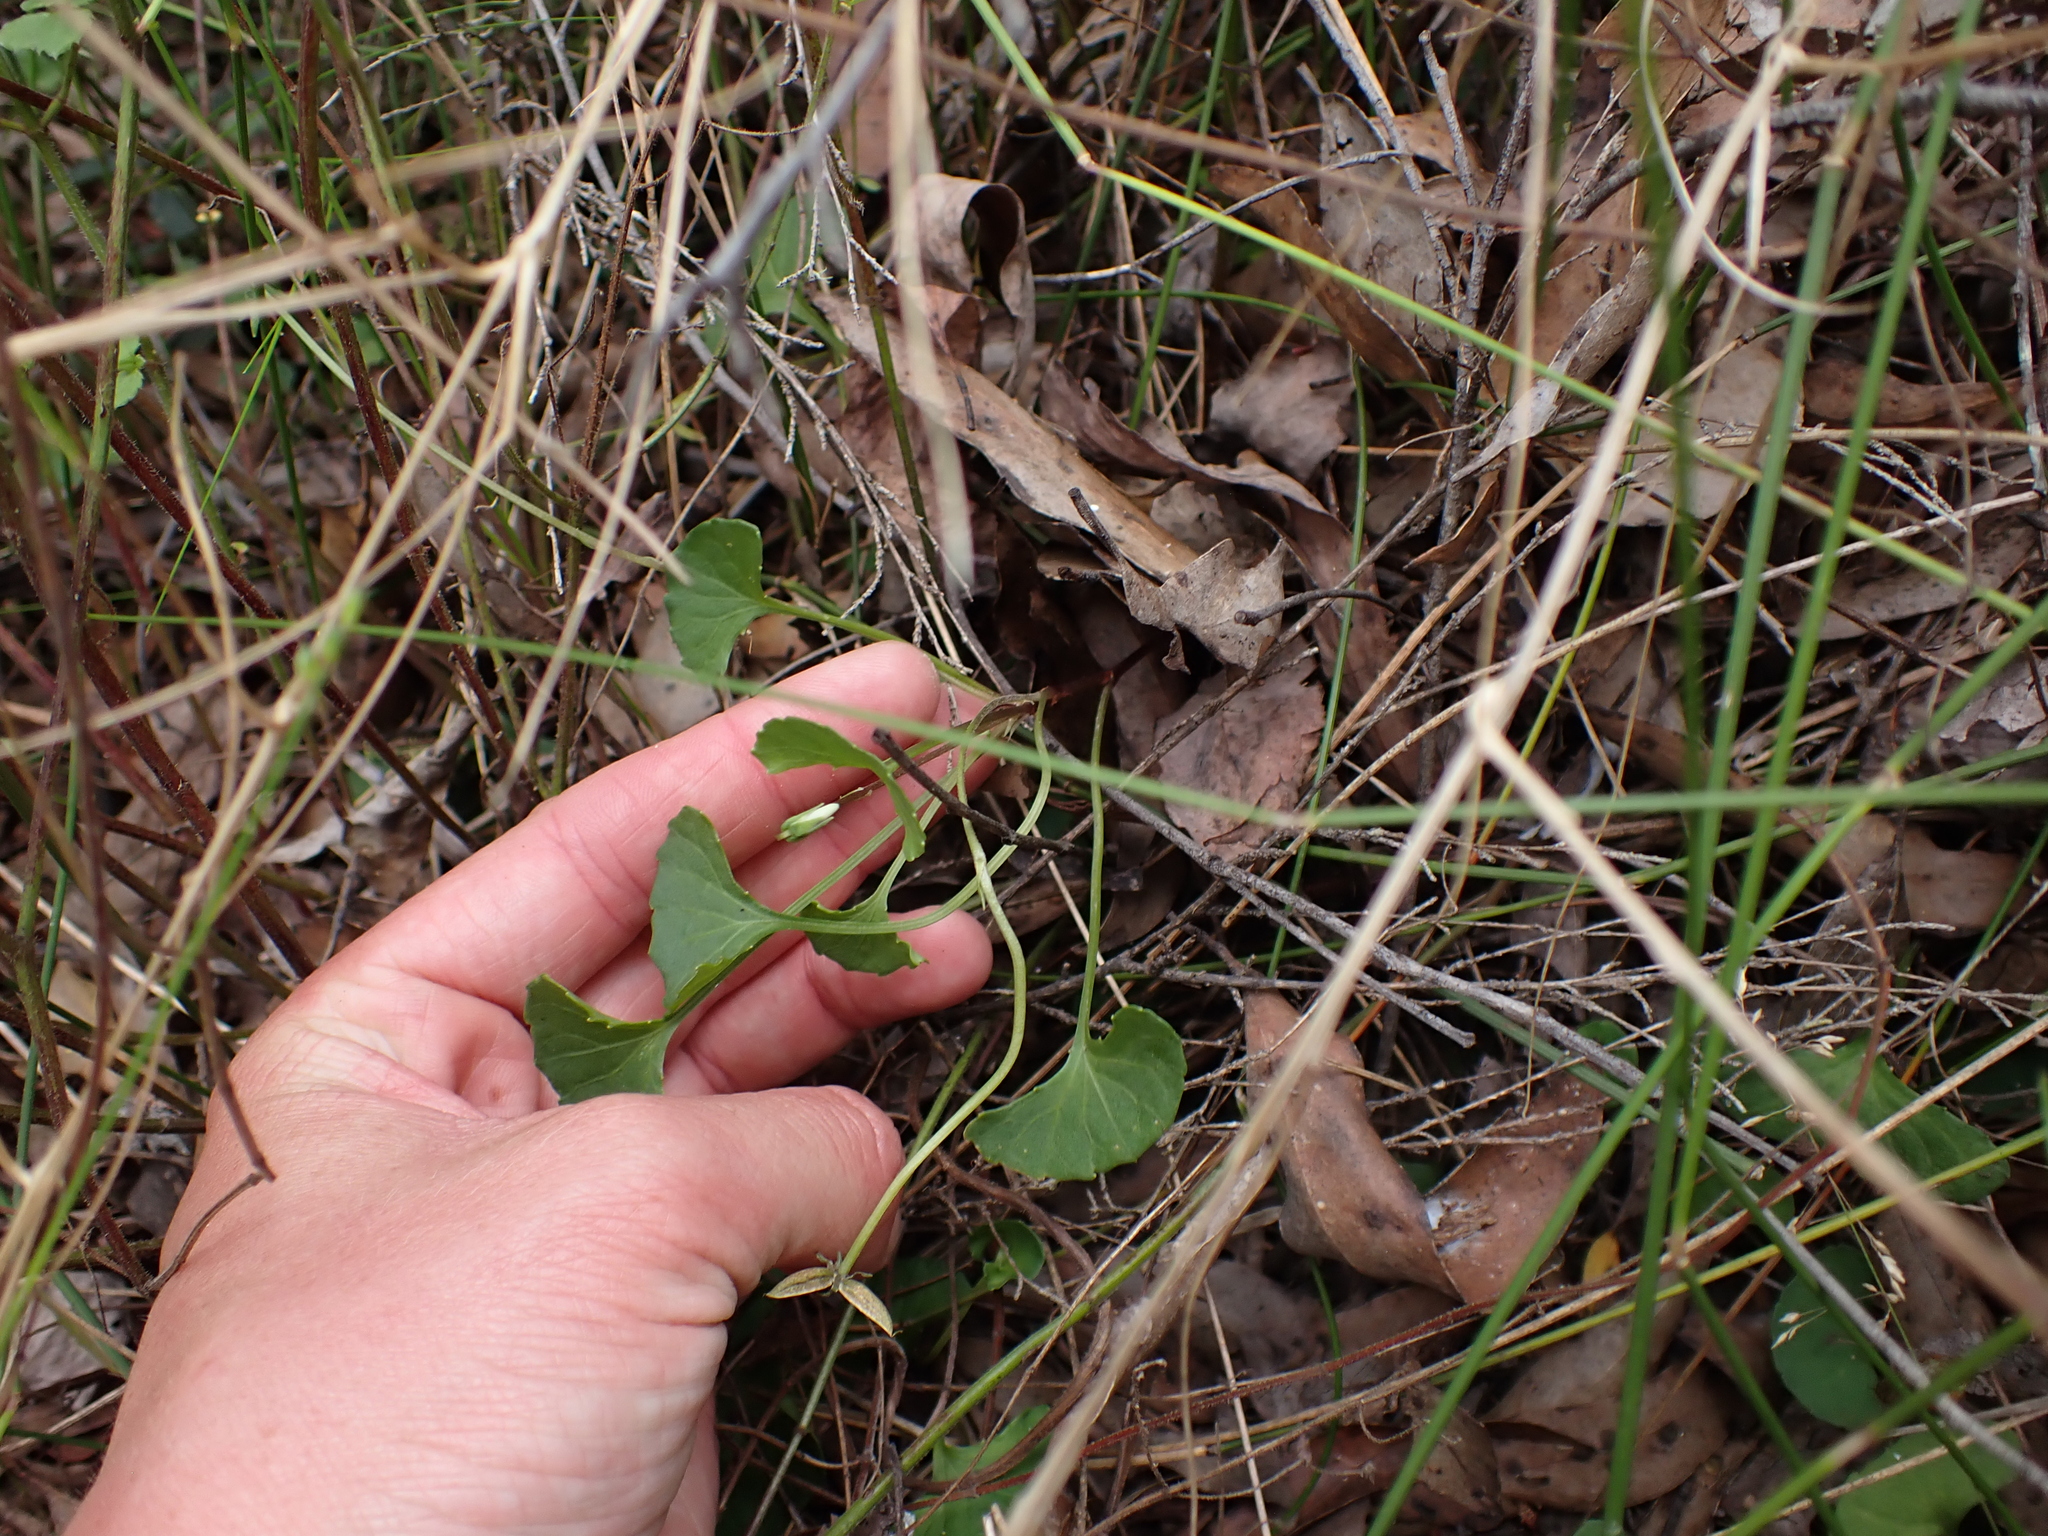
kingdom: Plantae
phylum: Tracheophyta
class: Magnoliopsida
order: Malpighiales
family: Violaceae
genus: Viola
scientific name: Viola hederacea
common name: Australian violet
